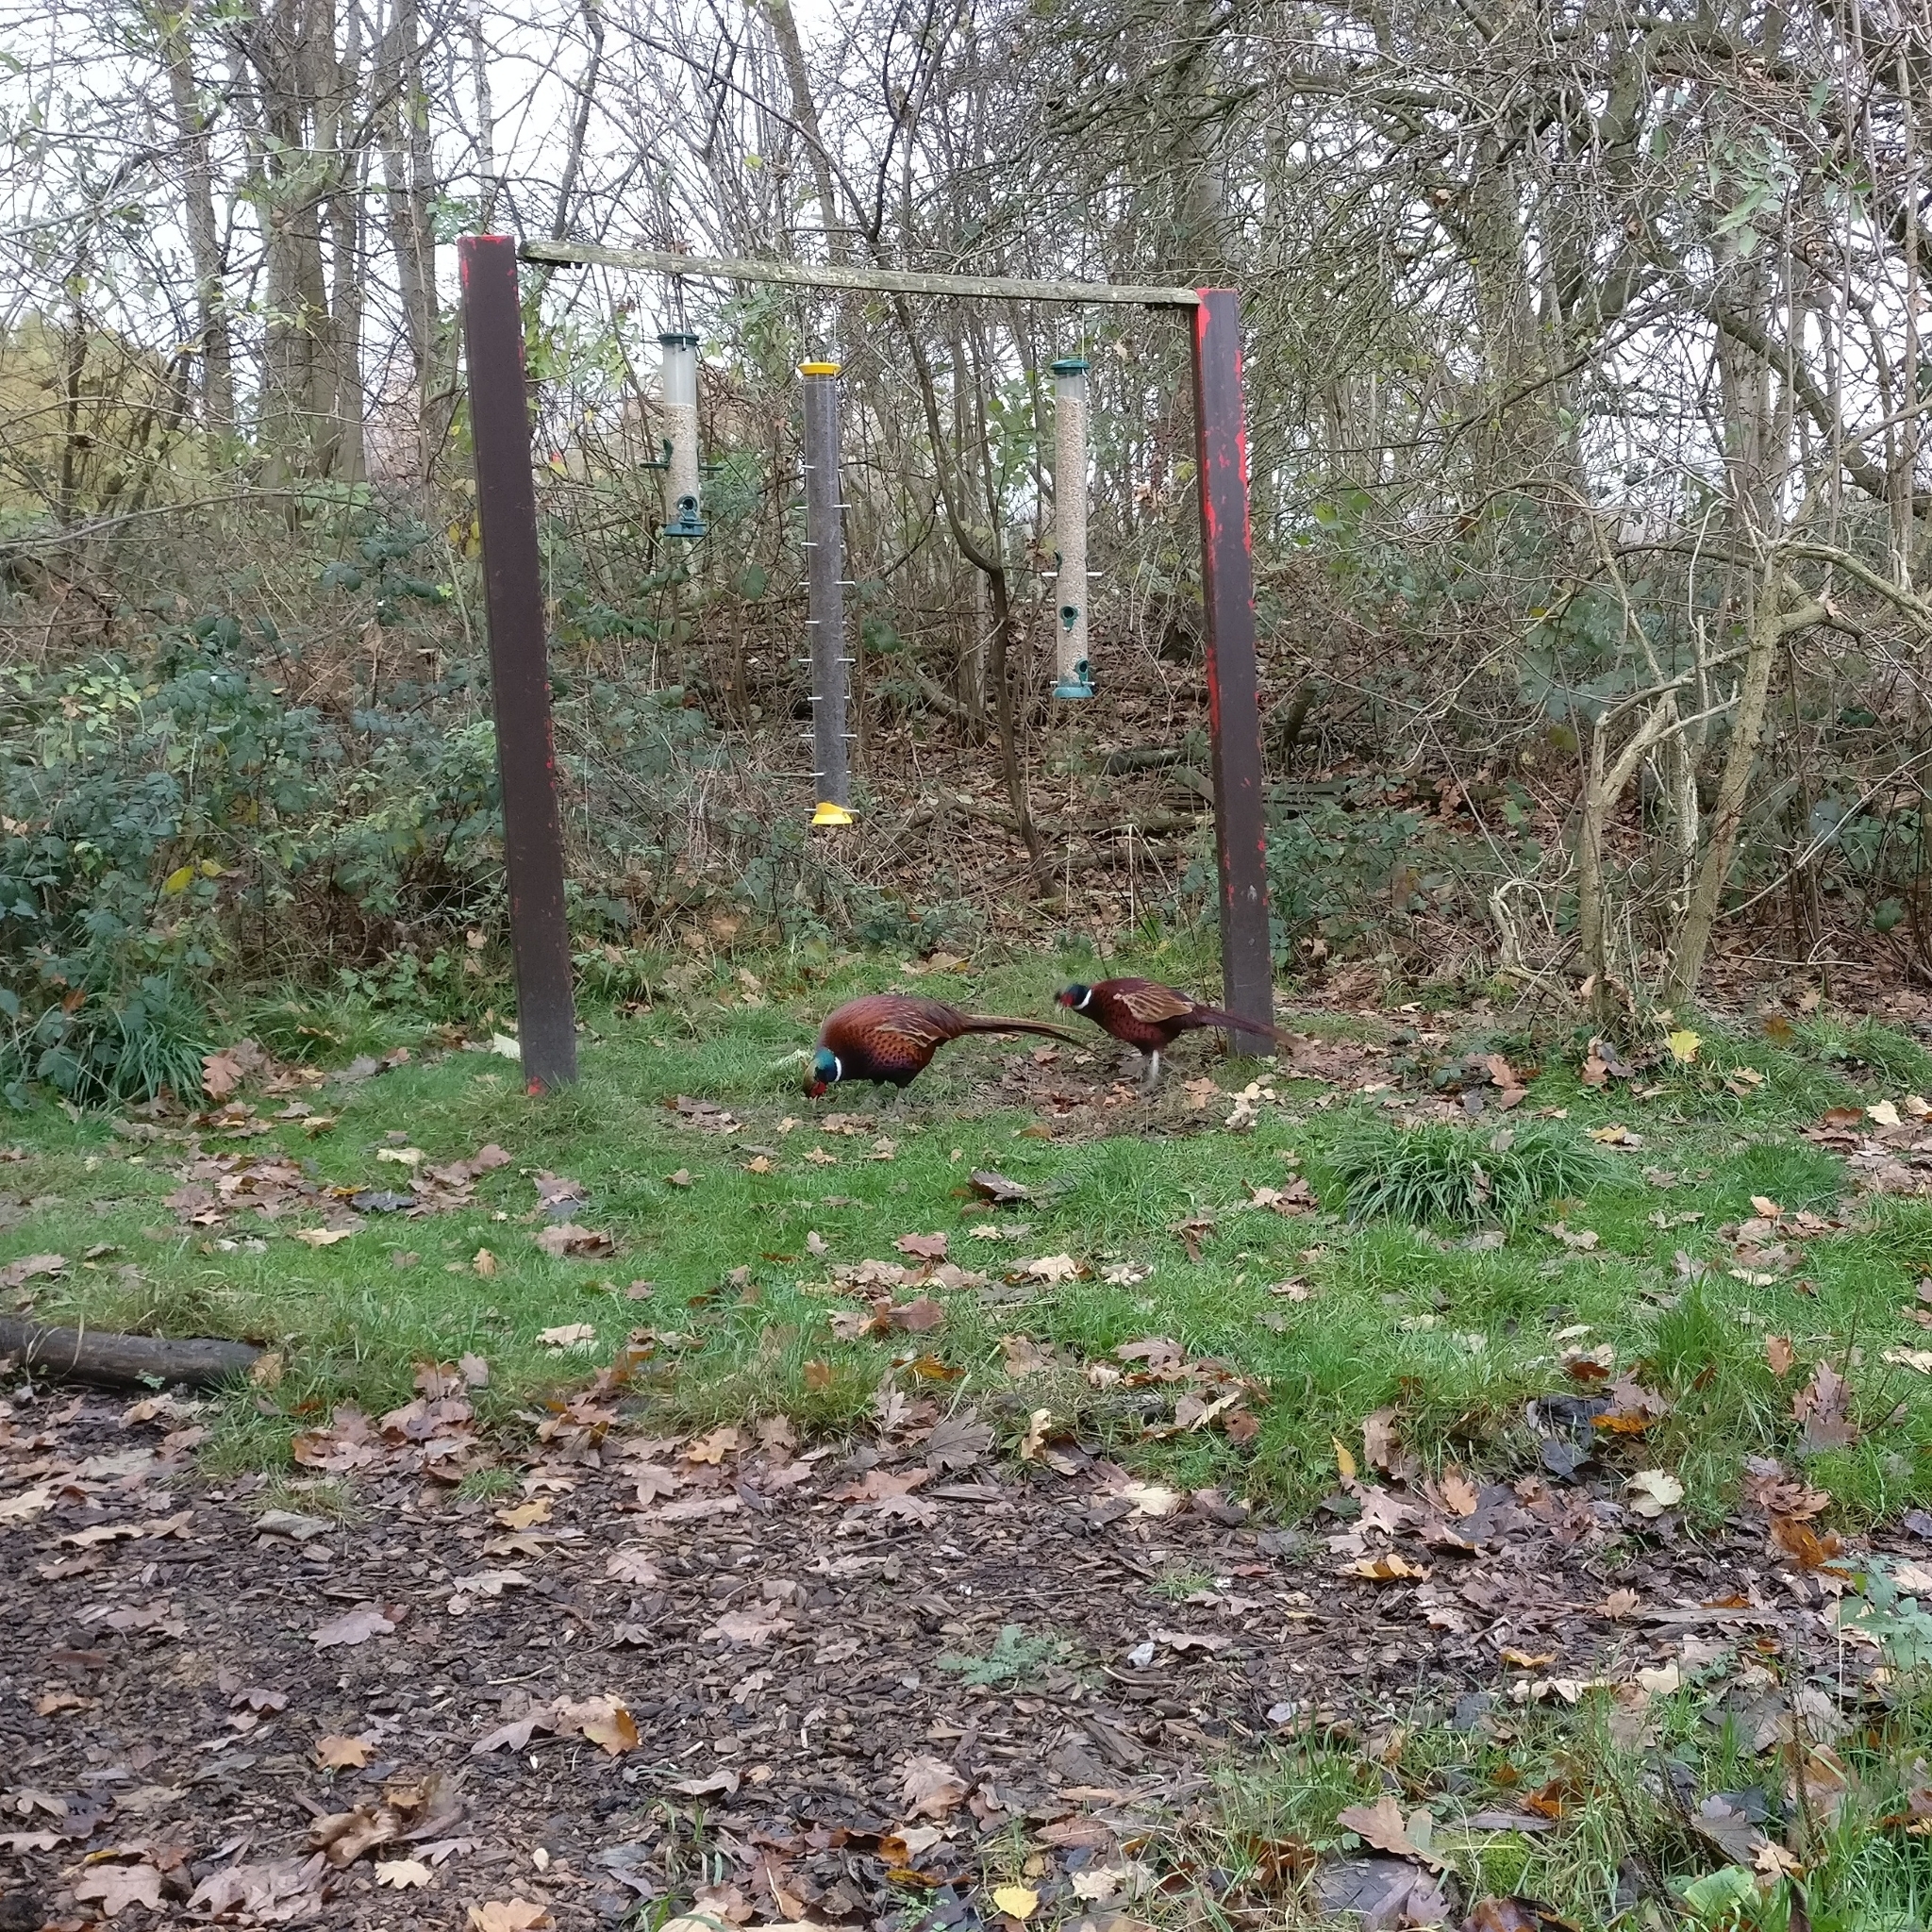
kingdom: Animalia
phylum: Chordata
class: Aves
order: Galliformes
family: Phasianidae
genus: Phasianus
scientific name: Phasianus colchicus
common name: Common pheasant
